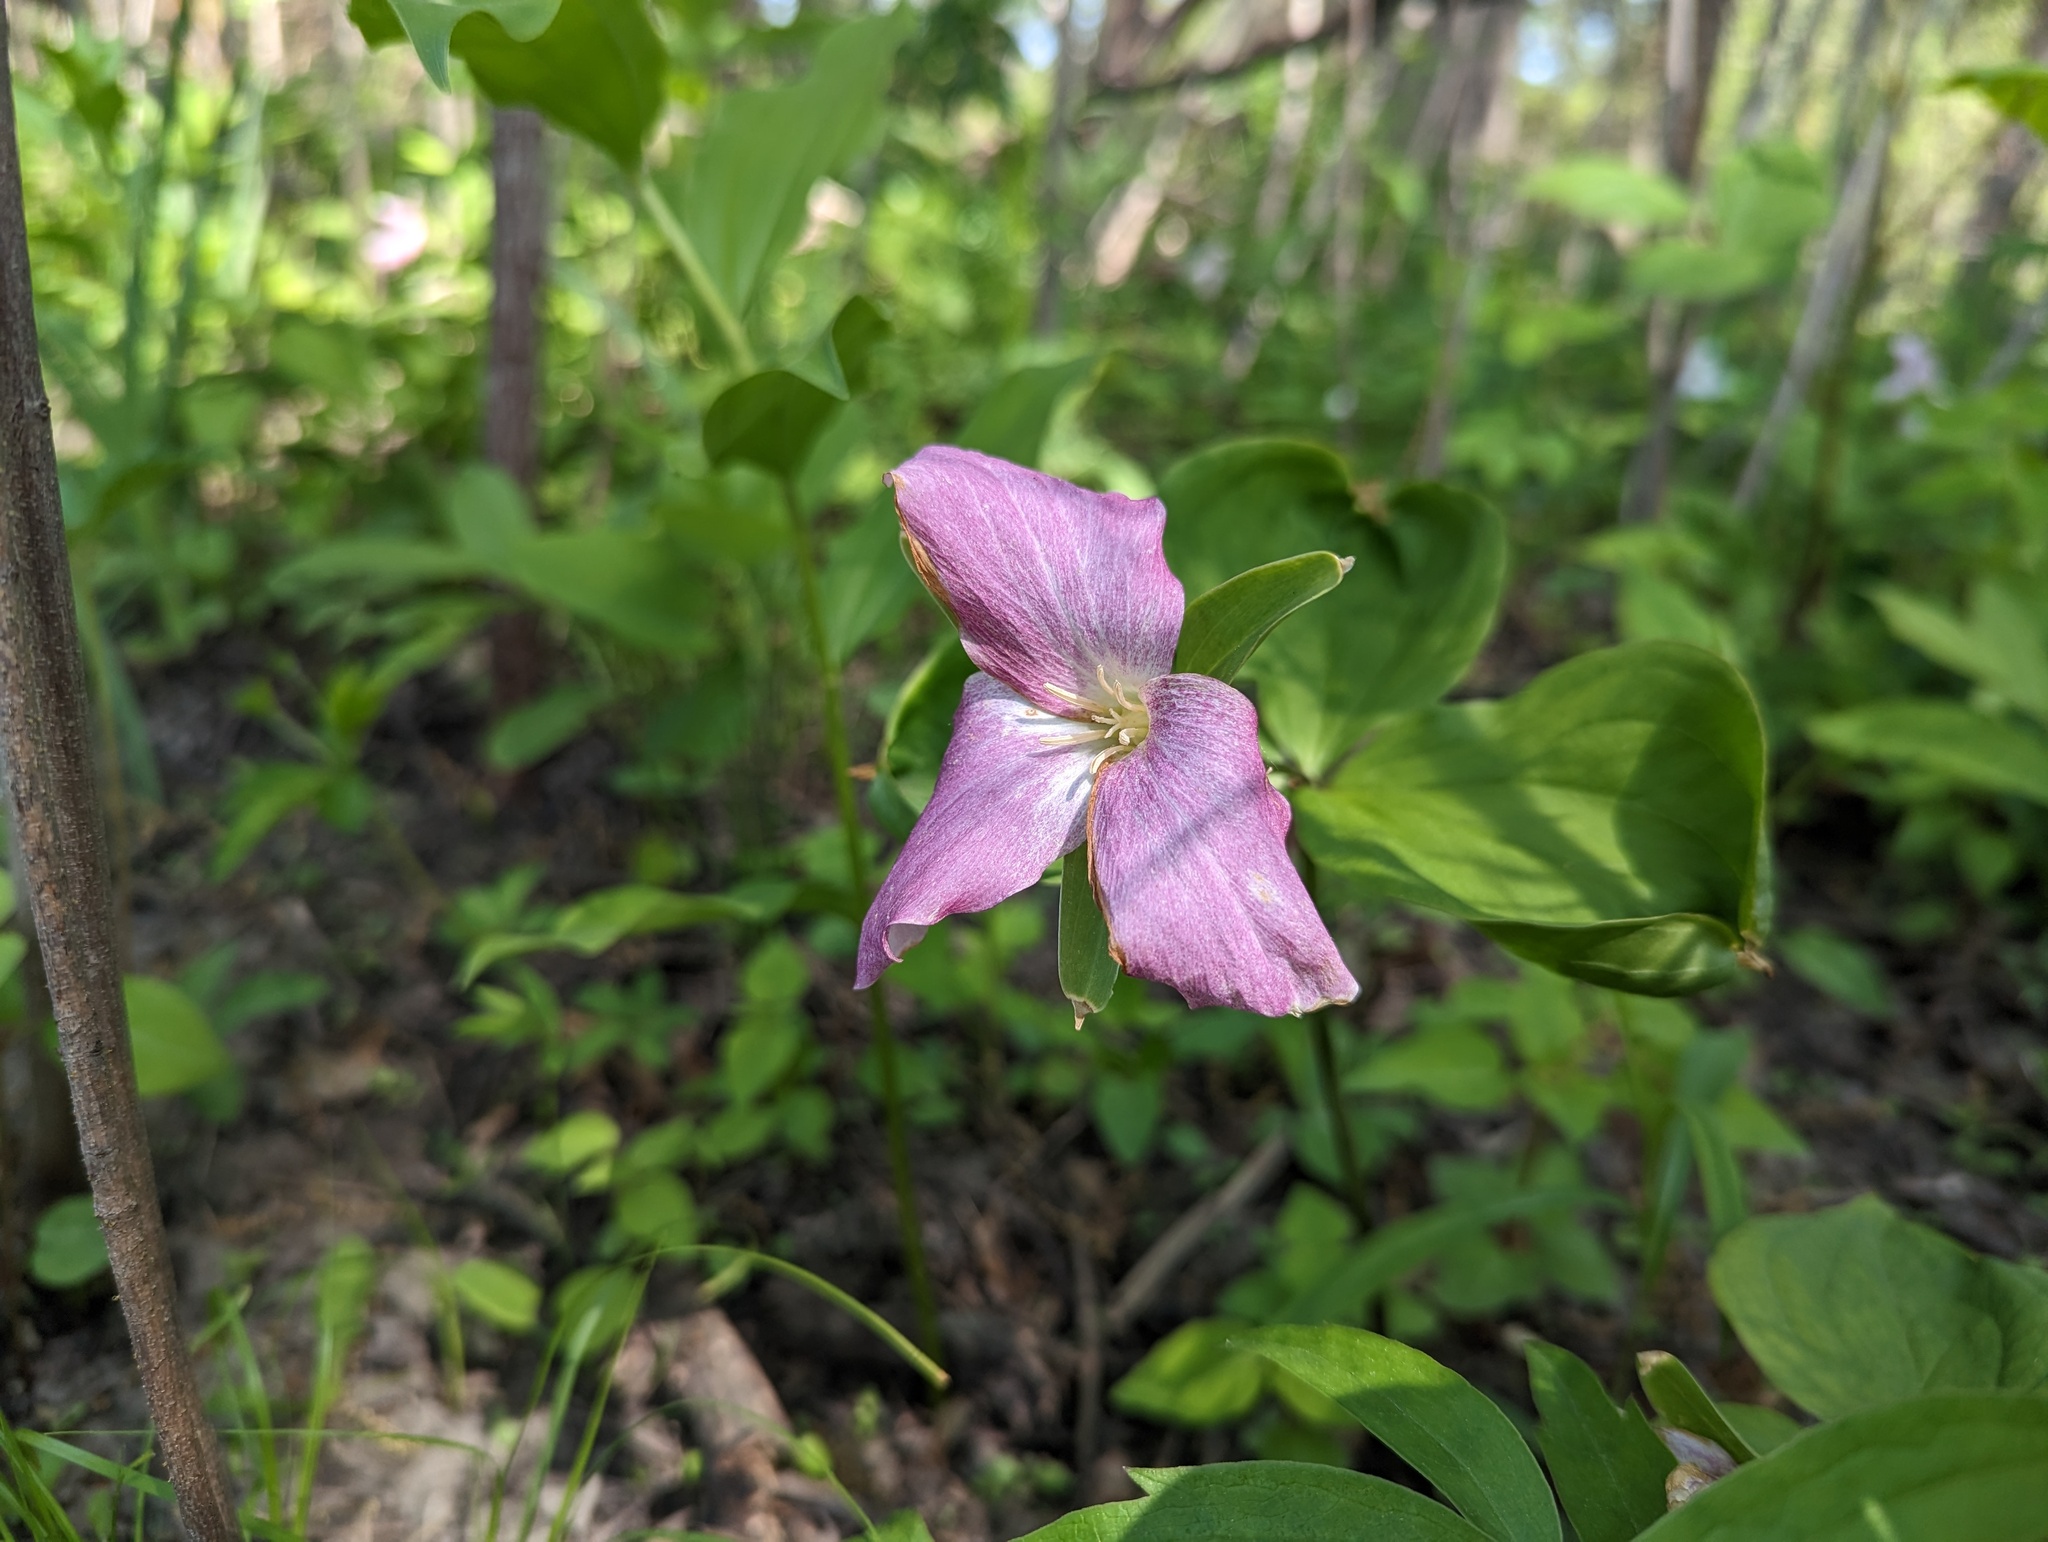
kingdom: Plantae
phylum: Tracheophyta
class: Liliopsida
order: Liliales
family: Melanthiaceae
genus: Trillium
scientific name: Trillium grandiflorum
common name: Great white trillium
